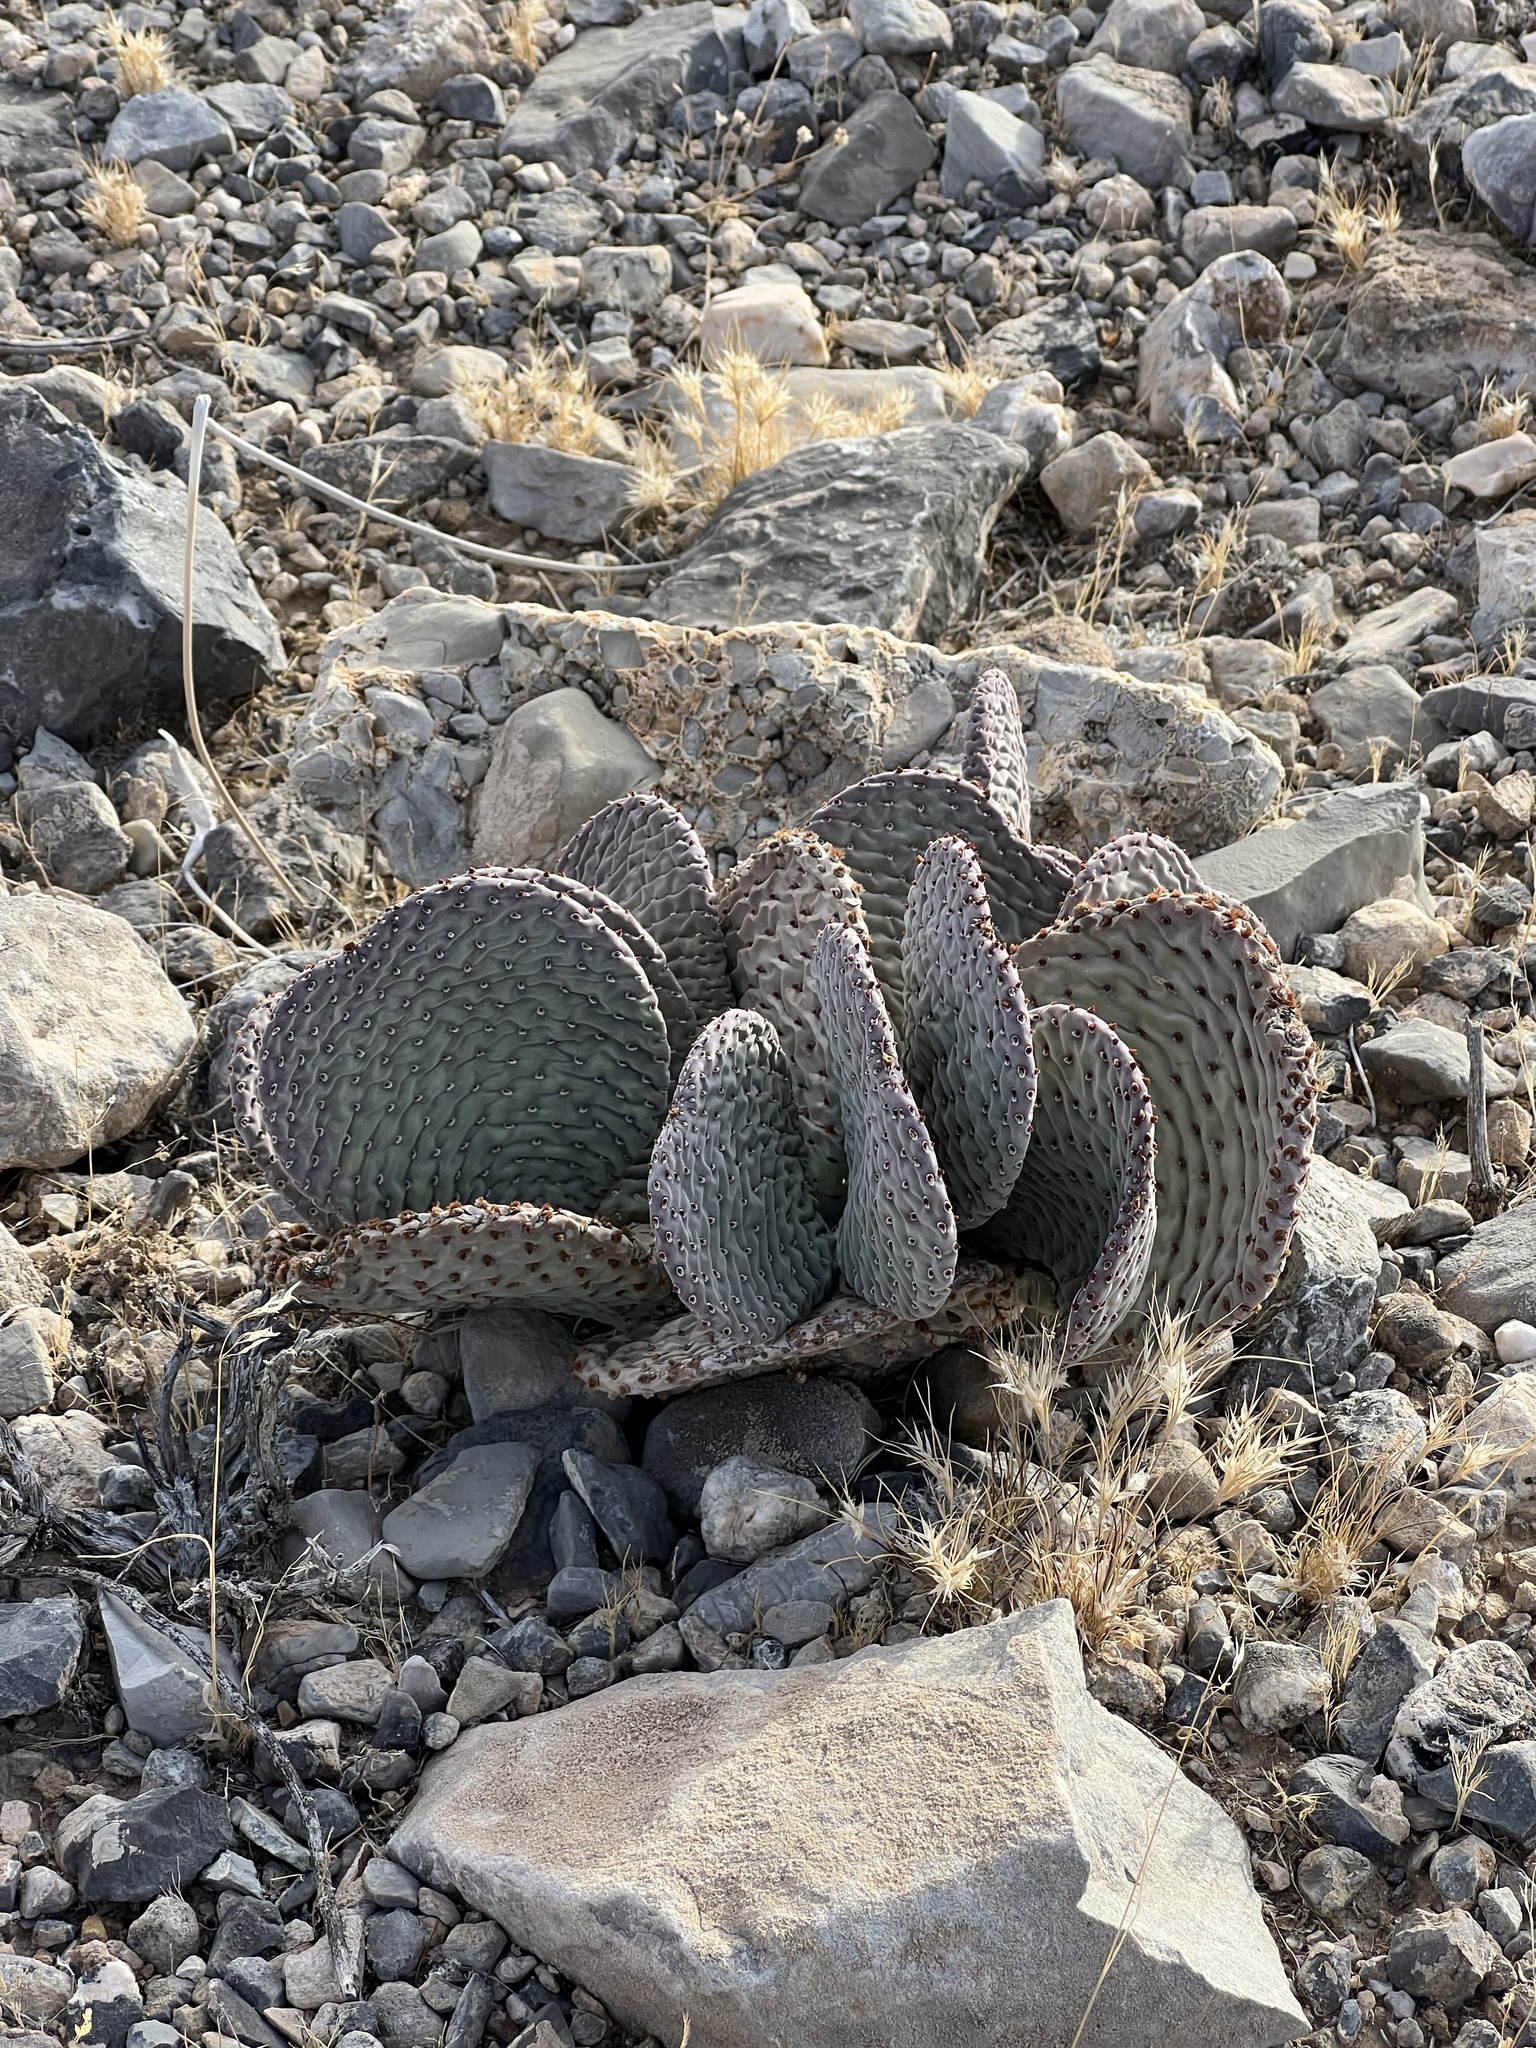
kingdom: Plantae
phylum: Tracheophyta
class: Magnoliopsida
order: Caryophyllales
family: Cactaceae
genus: Opuntia
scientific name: Opuntia basilaris
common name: Beavertail prickly-pear
